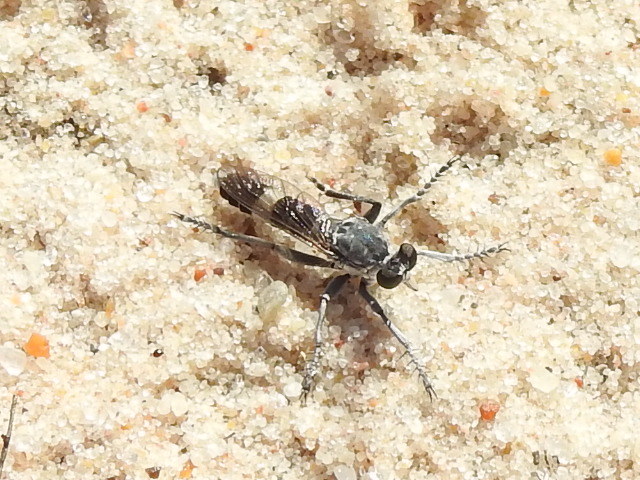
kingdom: Animalia
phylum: Arthropoda
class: Insecta
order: Diptera
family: Asilidae
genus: Stichopogon
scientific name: Stichopogon trifasciatus
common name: Three-banded robber fly
